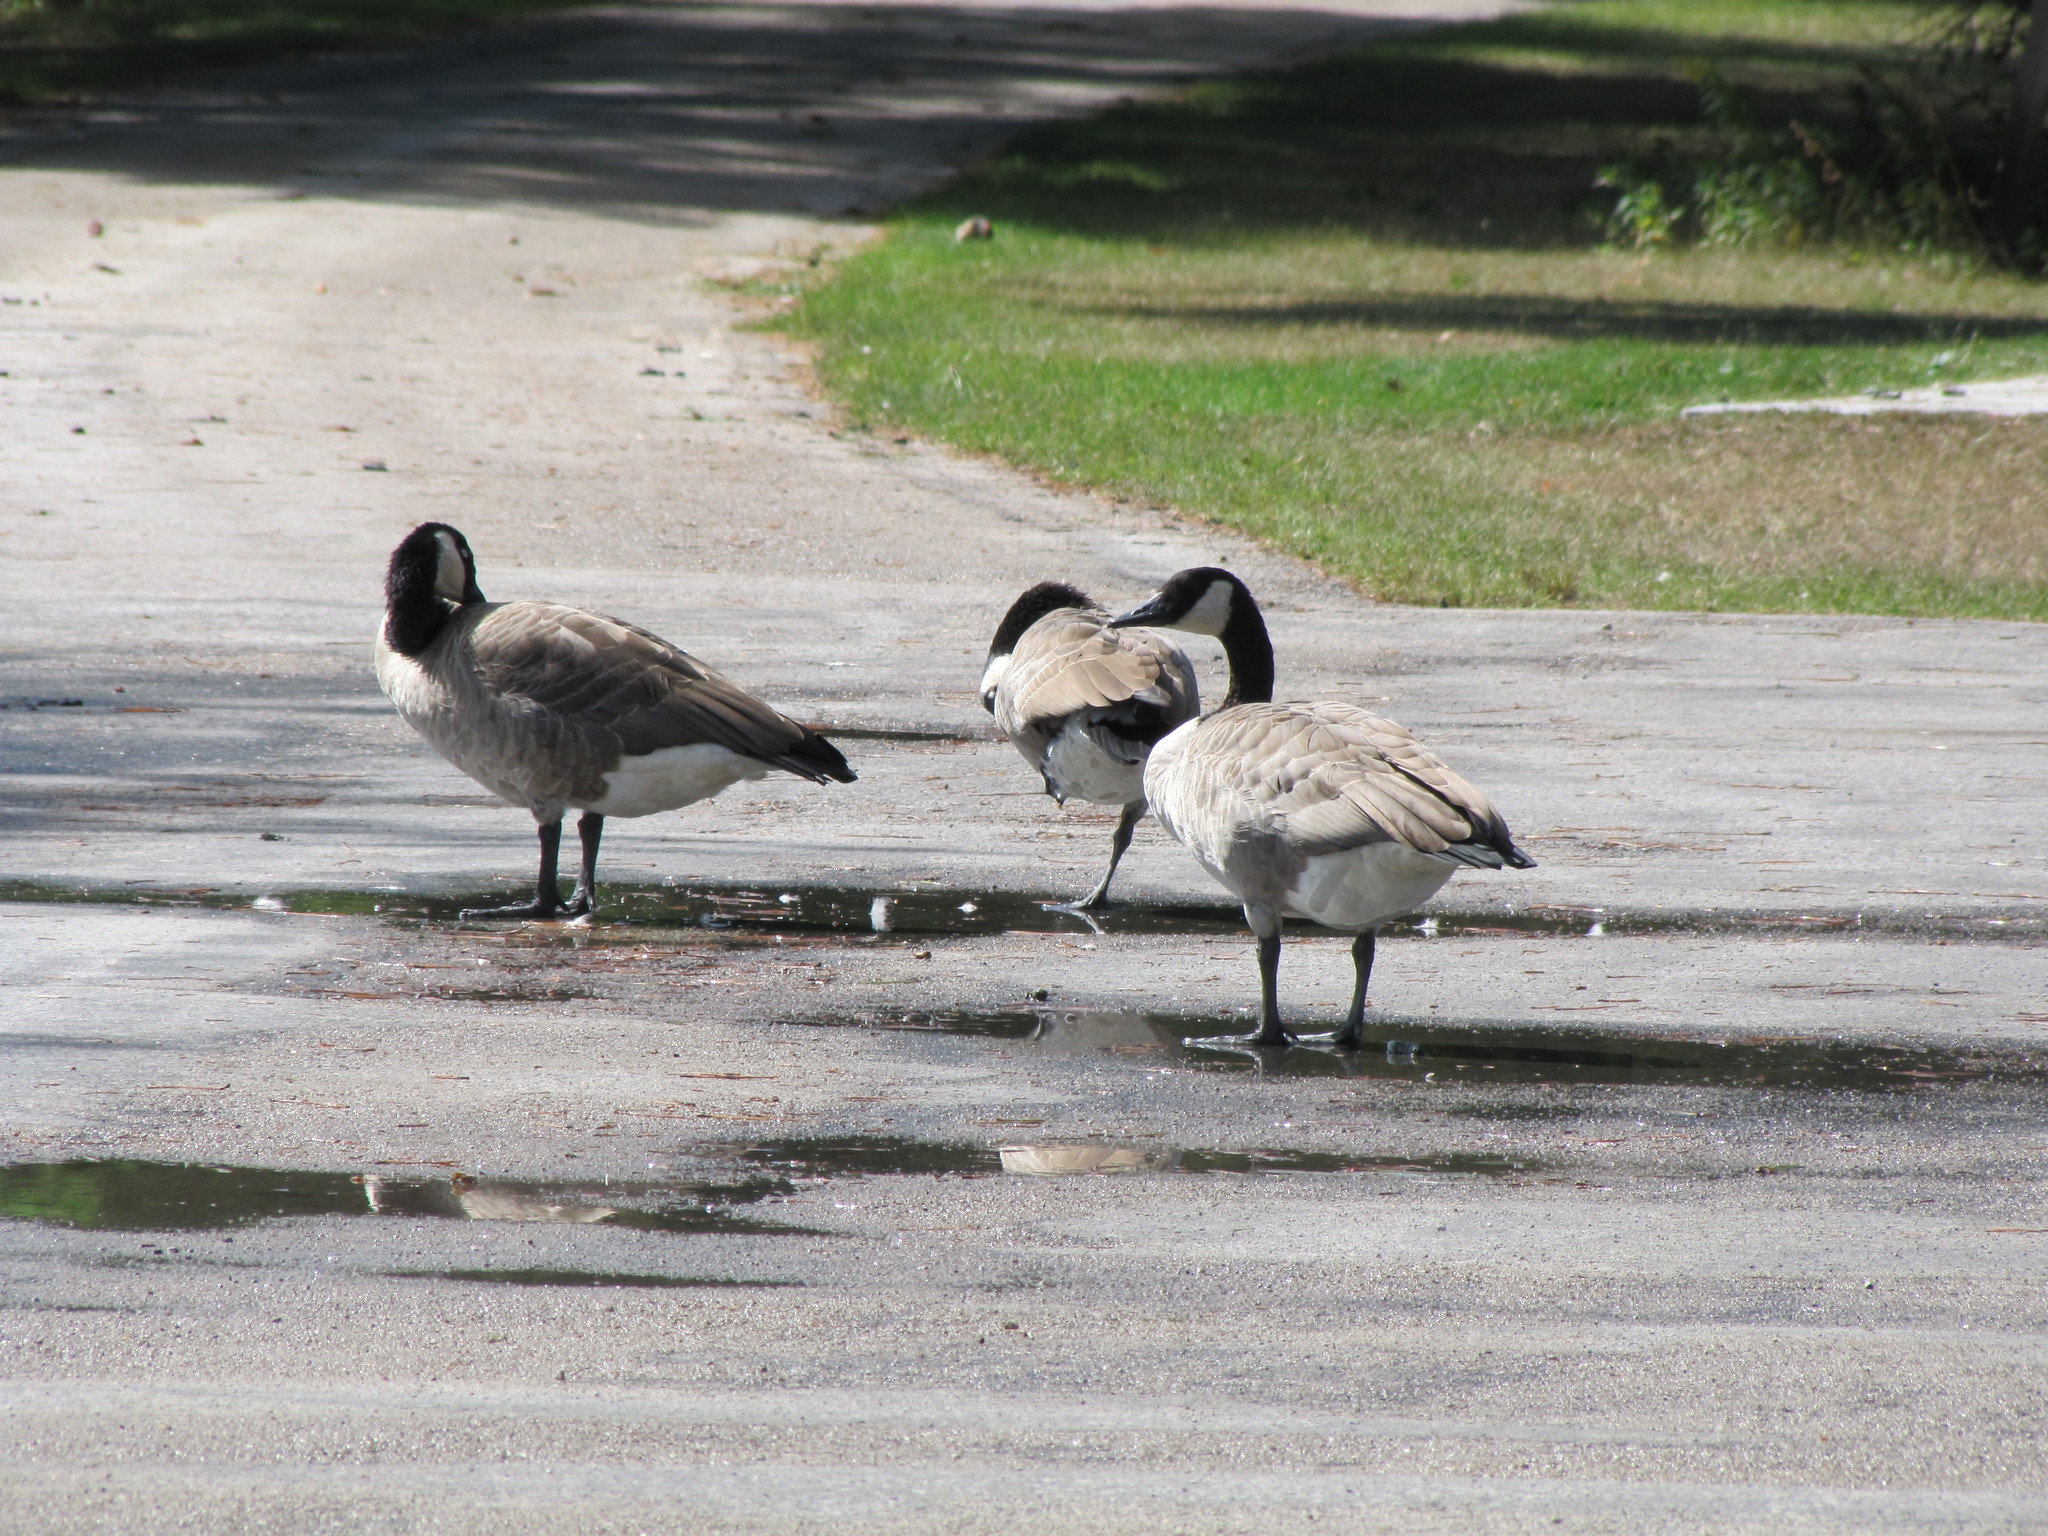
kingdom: Animalia
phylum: Chordata
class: Aves
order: Anseriformes
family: Anatidae
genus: Branta
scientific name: Branta canadensis
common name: Canada goose
